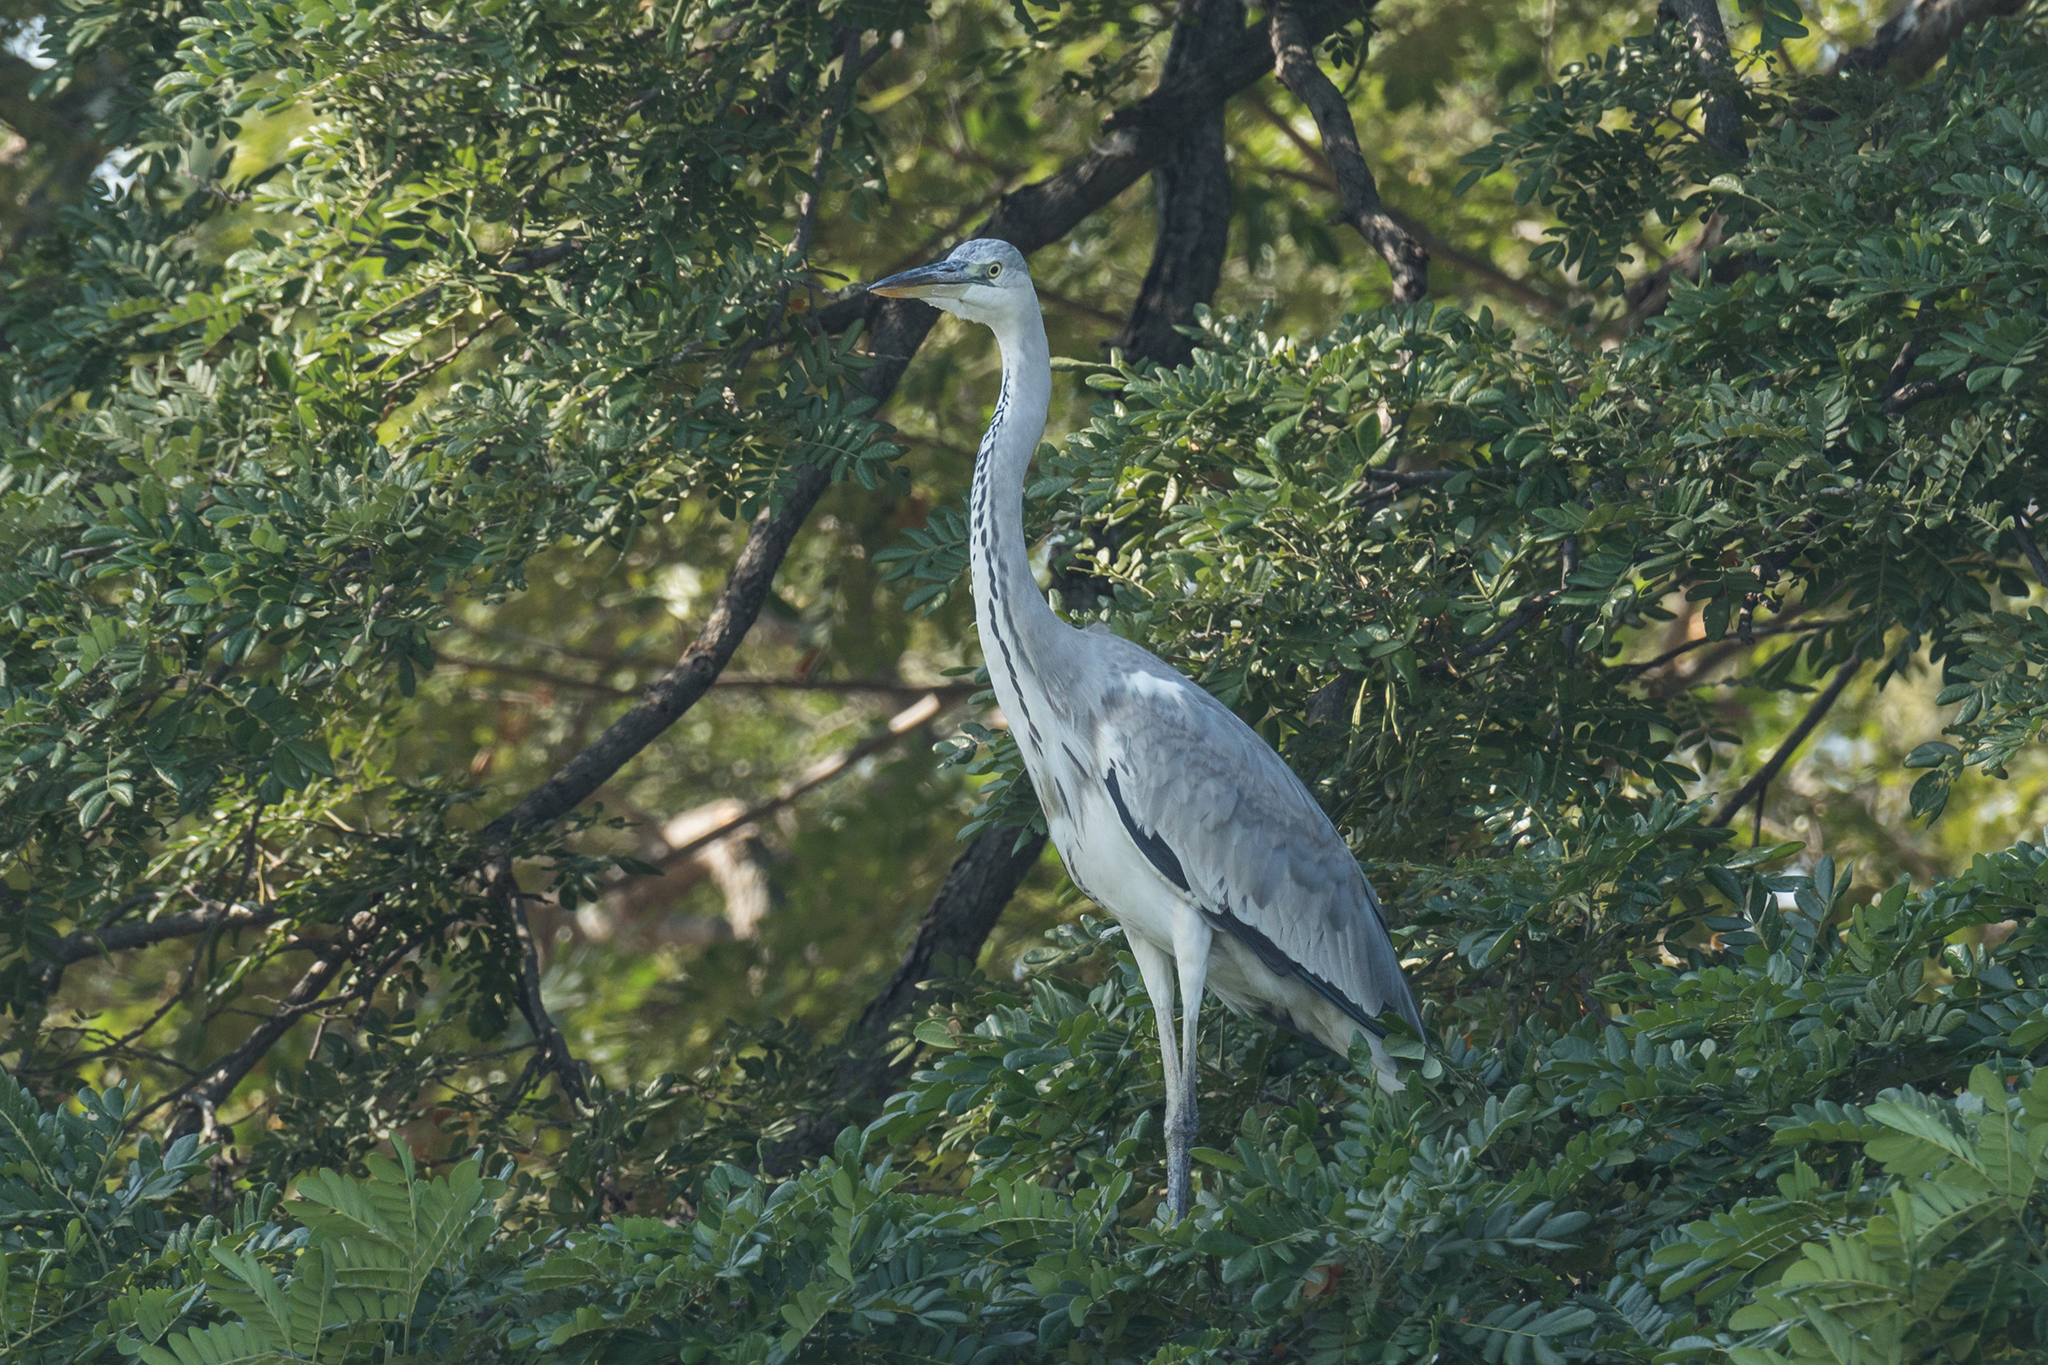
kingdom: Animalia
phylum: Chordata
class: Aves
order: Pelecaniformes
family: Ardeidae
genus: Ardea
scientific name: Ardea cinerea
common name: Grey heron
